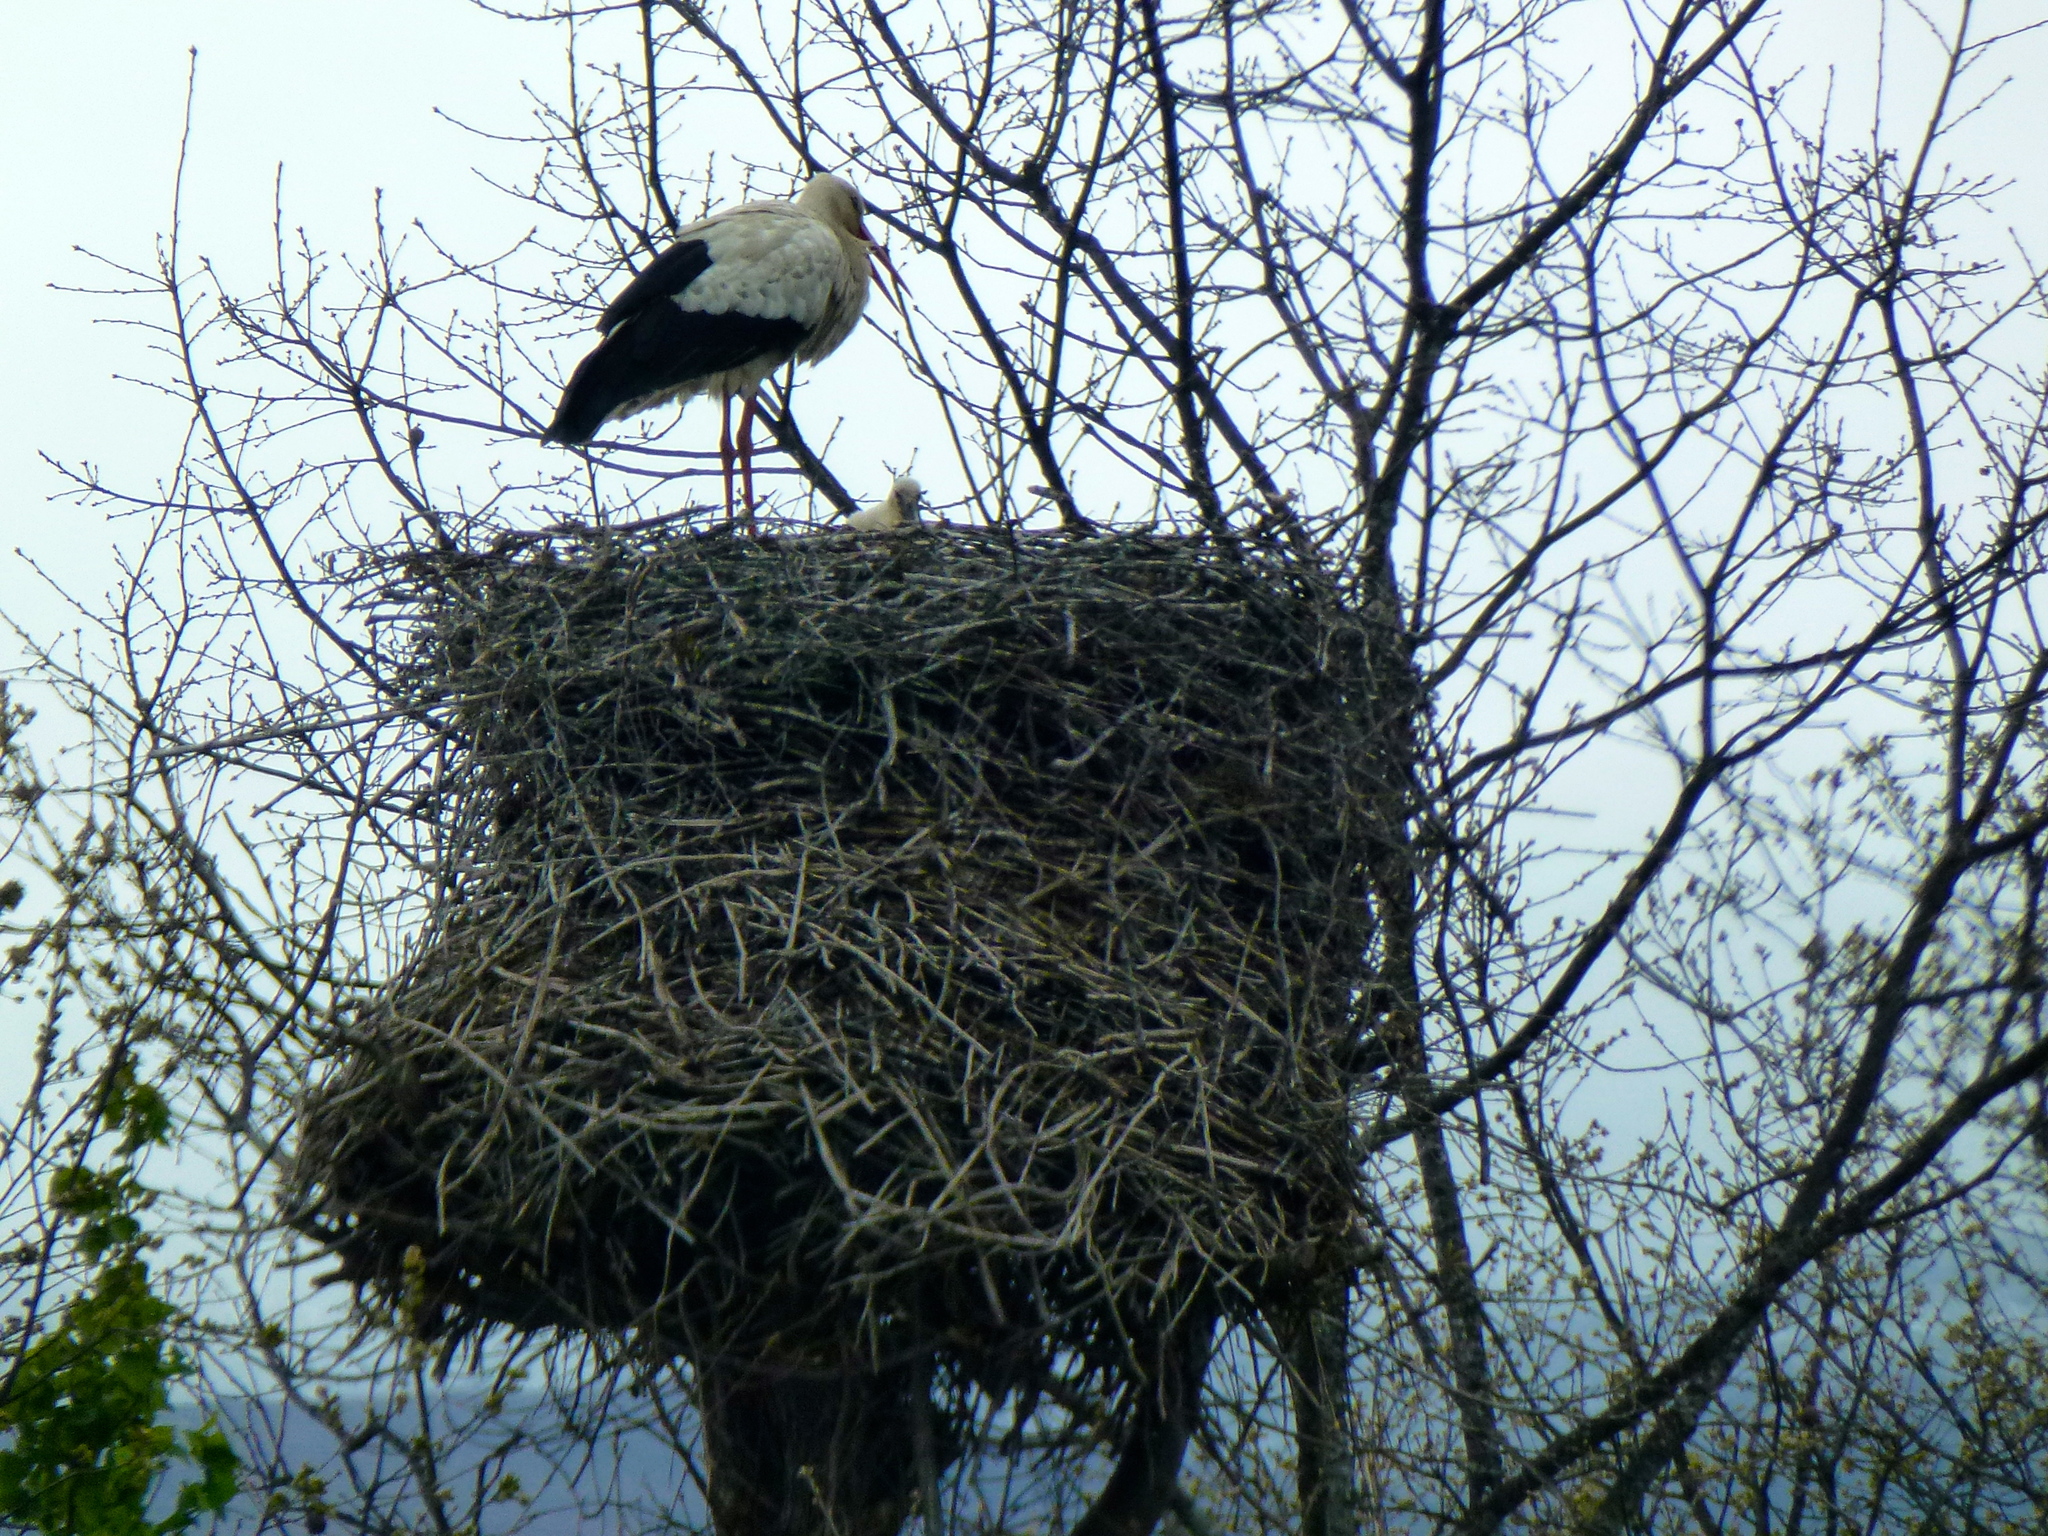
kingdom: Animalia
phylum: Chordata
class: Aves
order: Ciconiiformes
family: Ciconiidae
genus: Ciconia
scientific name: Ciconia ciconia
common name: White stork
